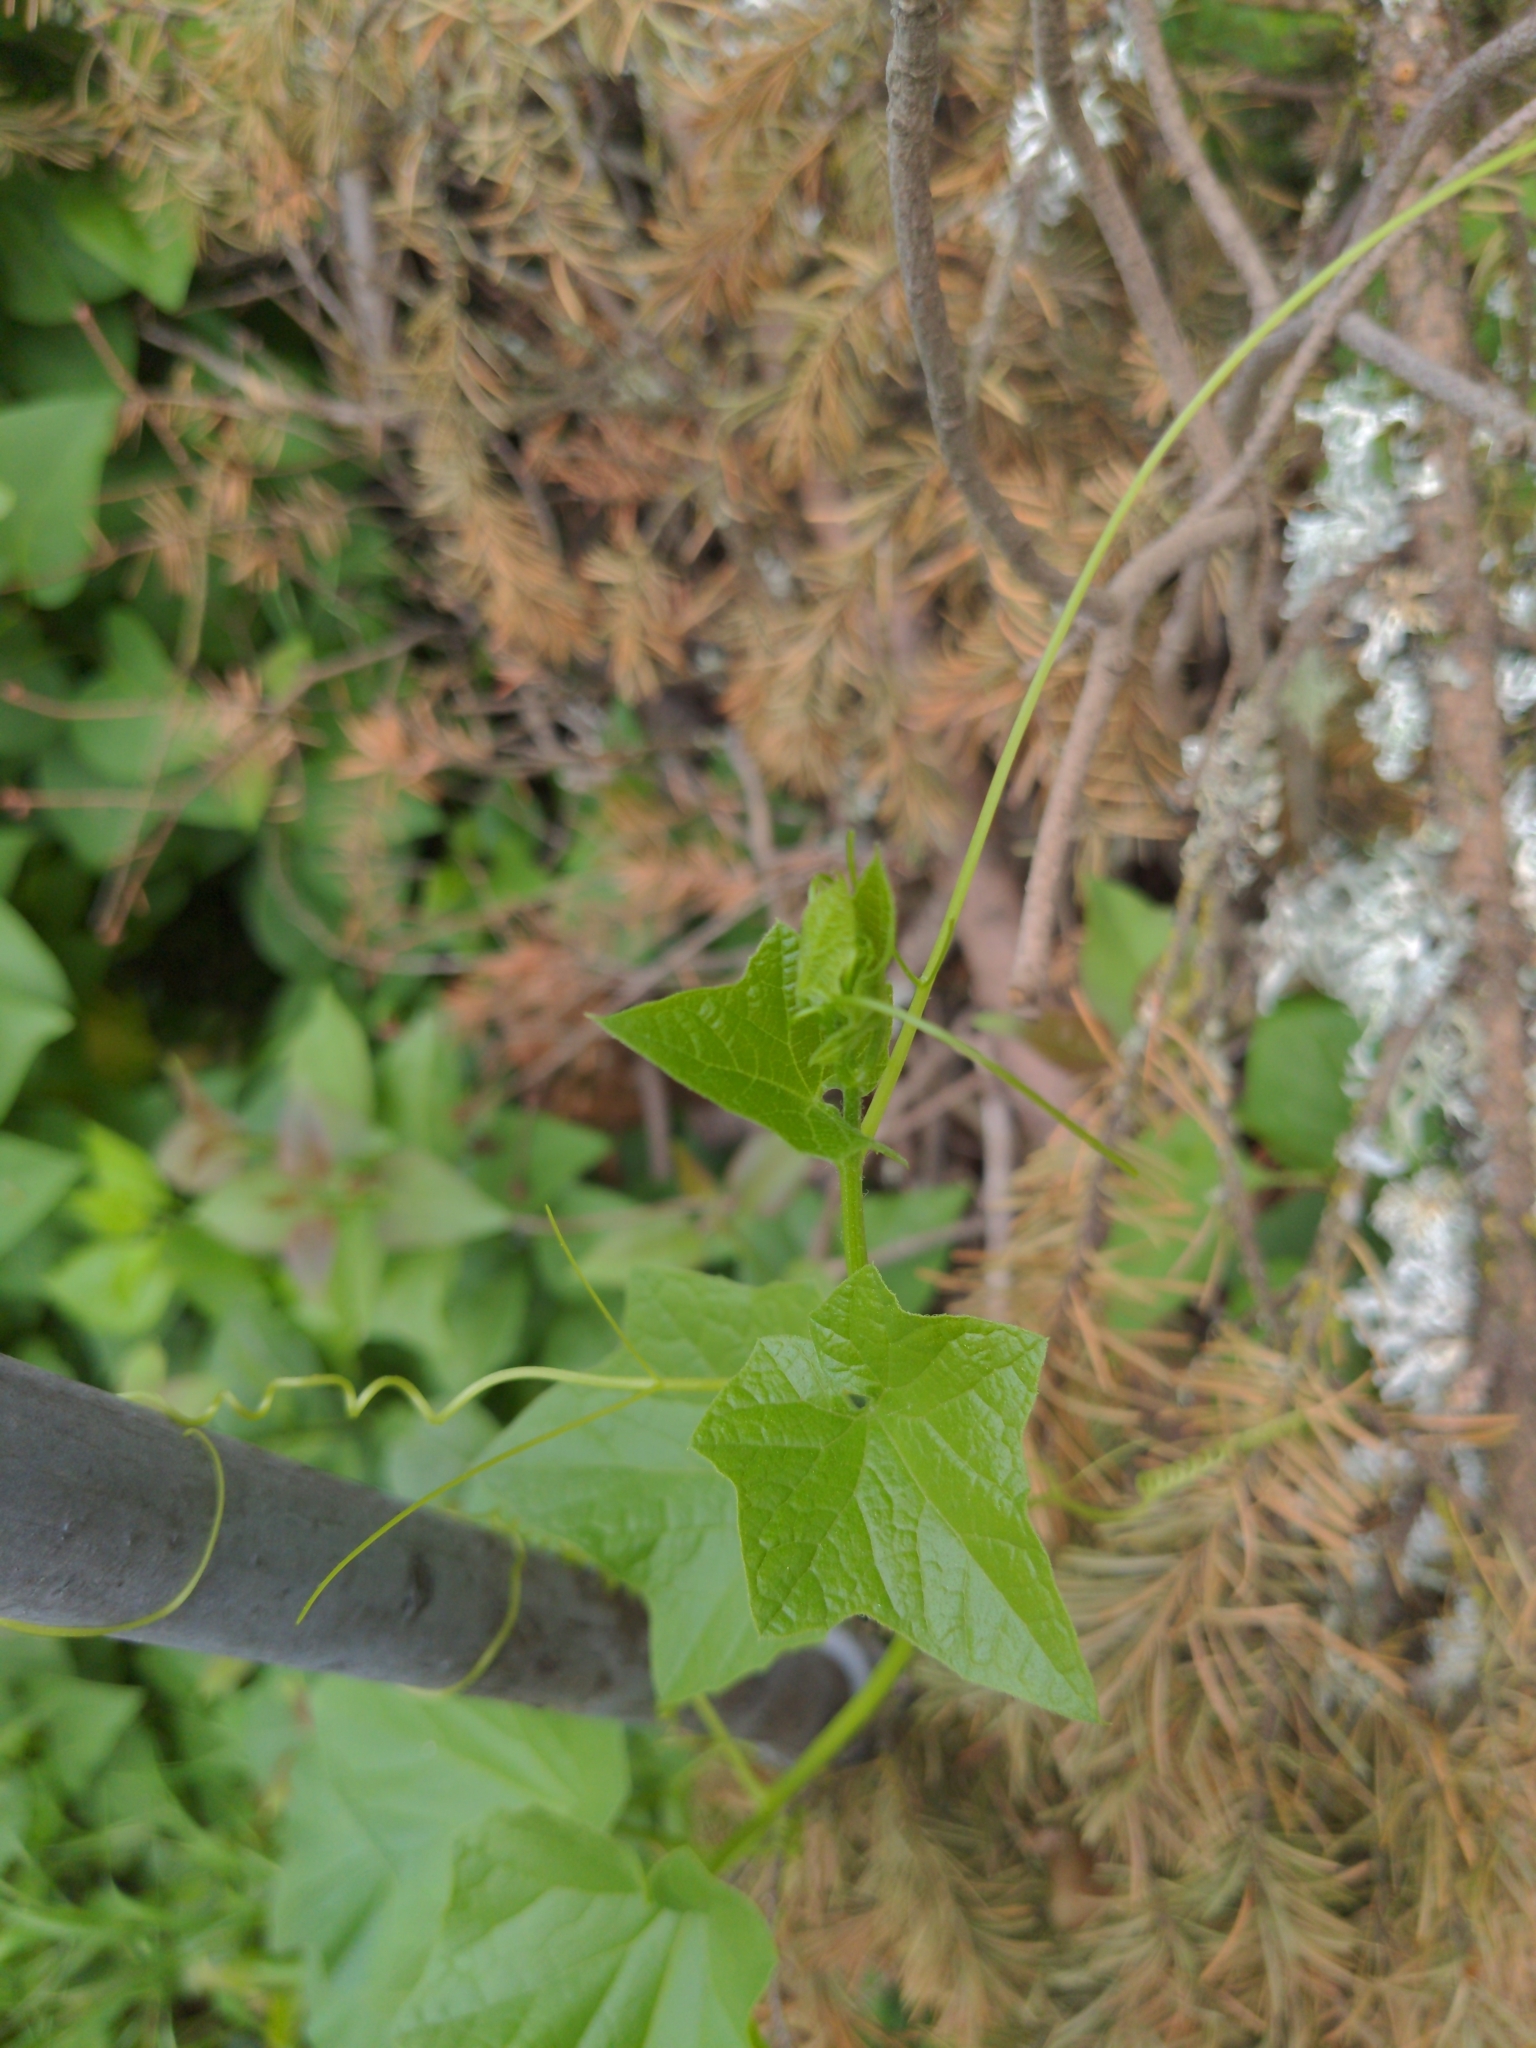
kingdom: Plantae
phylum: Tracheophyta
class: Magnoliopsida
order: Cucurbitales
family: Cucurbitaceae
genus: Marah
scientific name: Marah oregana
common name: Coastal manroot
